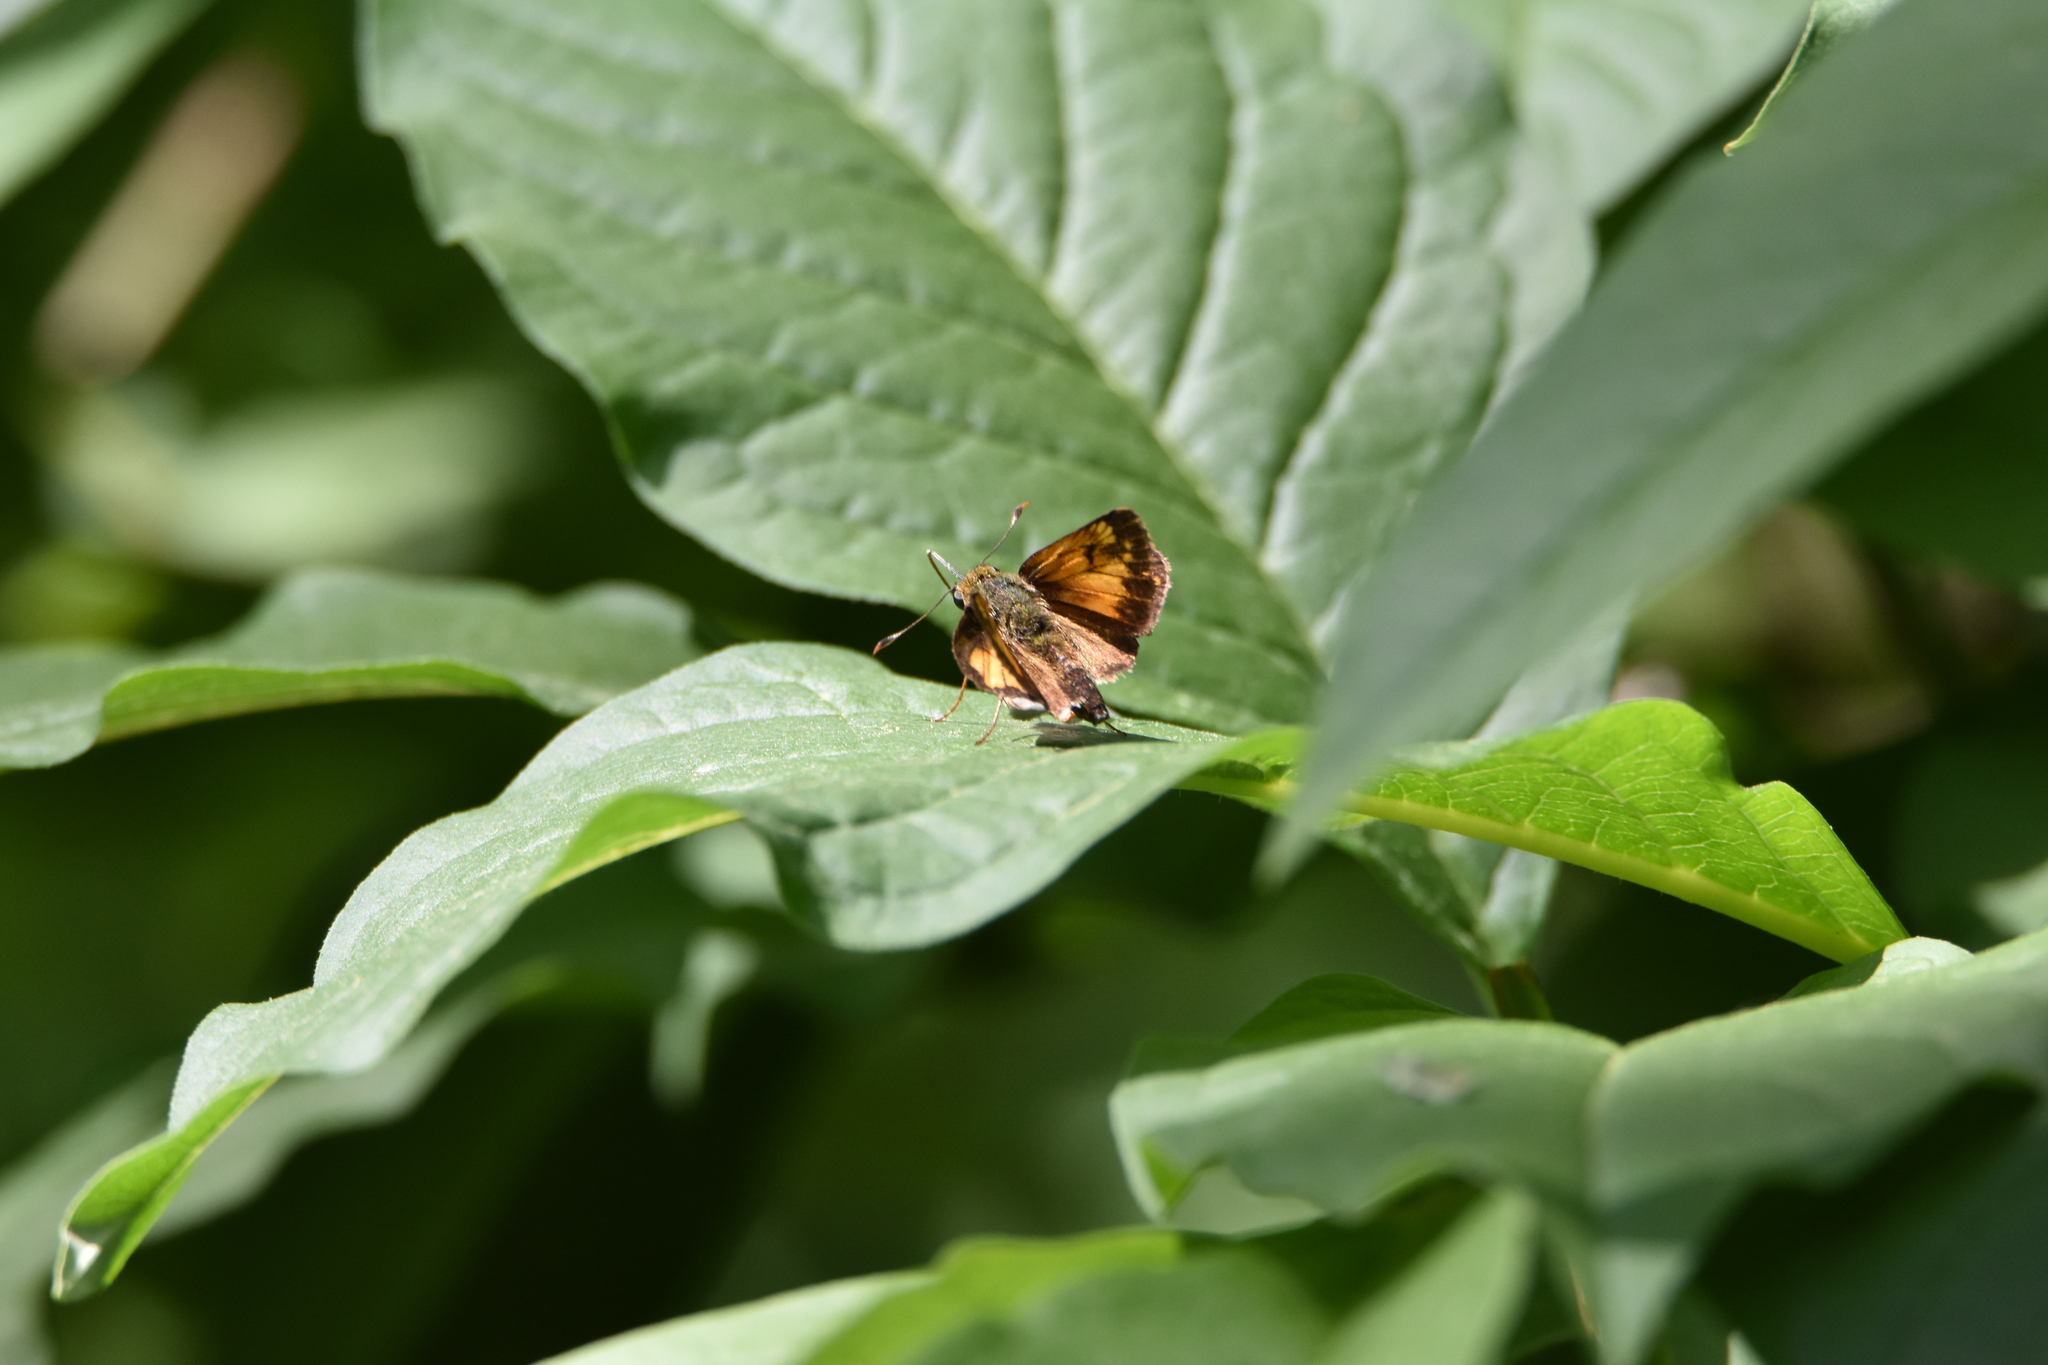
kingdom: Animalia
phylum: Arthropoda
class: Insecta
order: Lepidoptera
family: Hesperiidae
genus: Lon
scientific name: Lon hobomok
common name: Hobomok skipper
